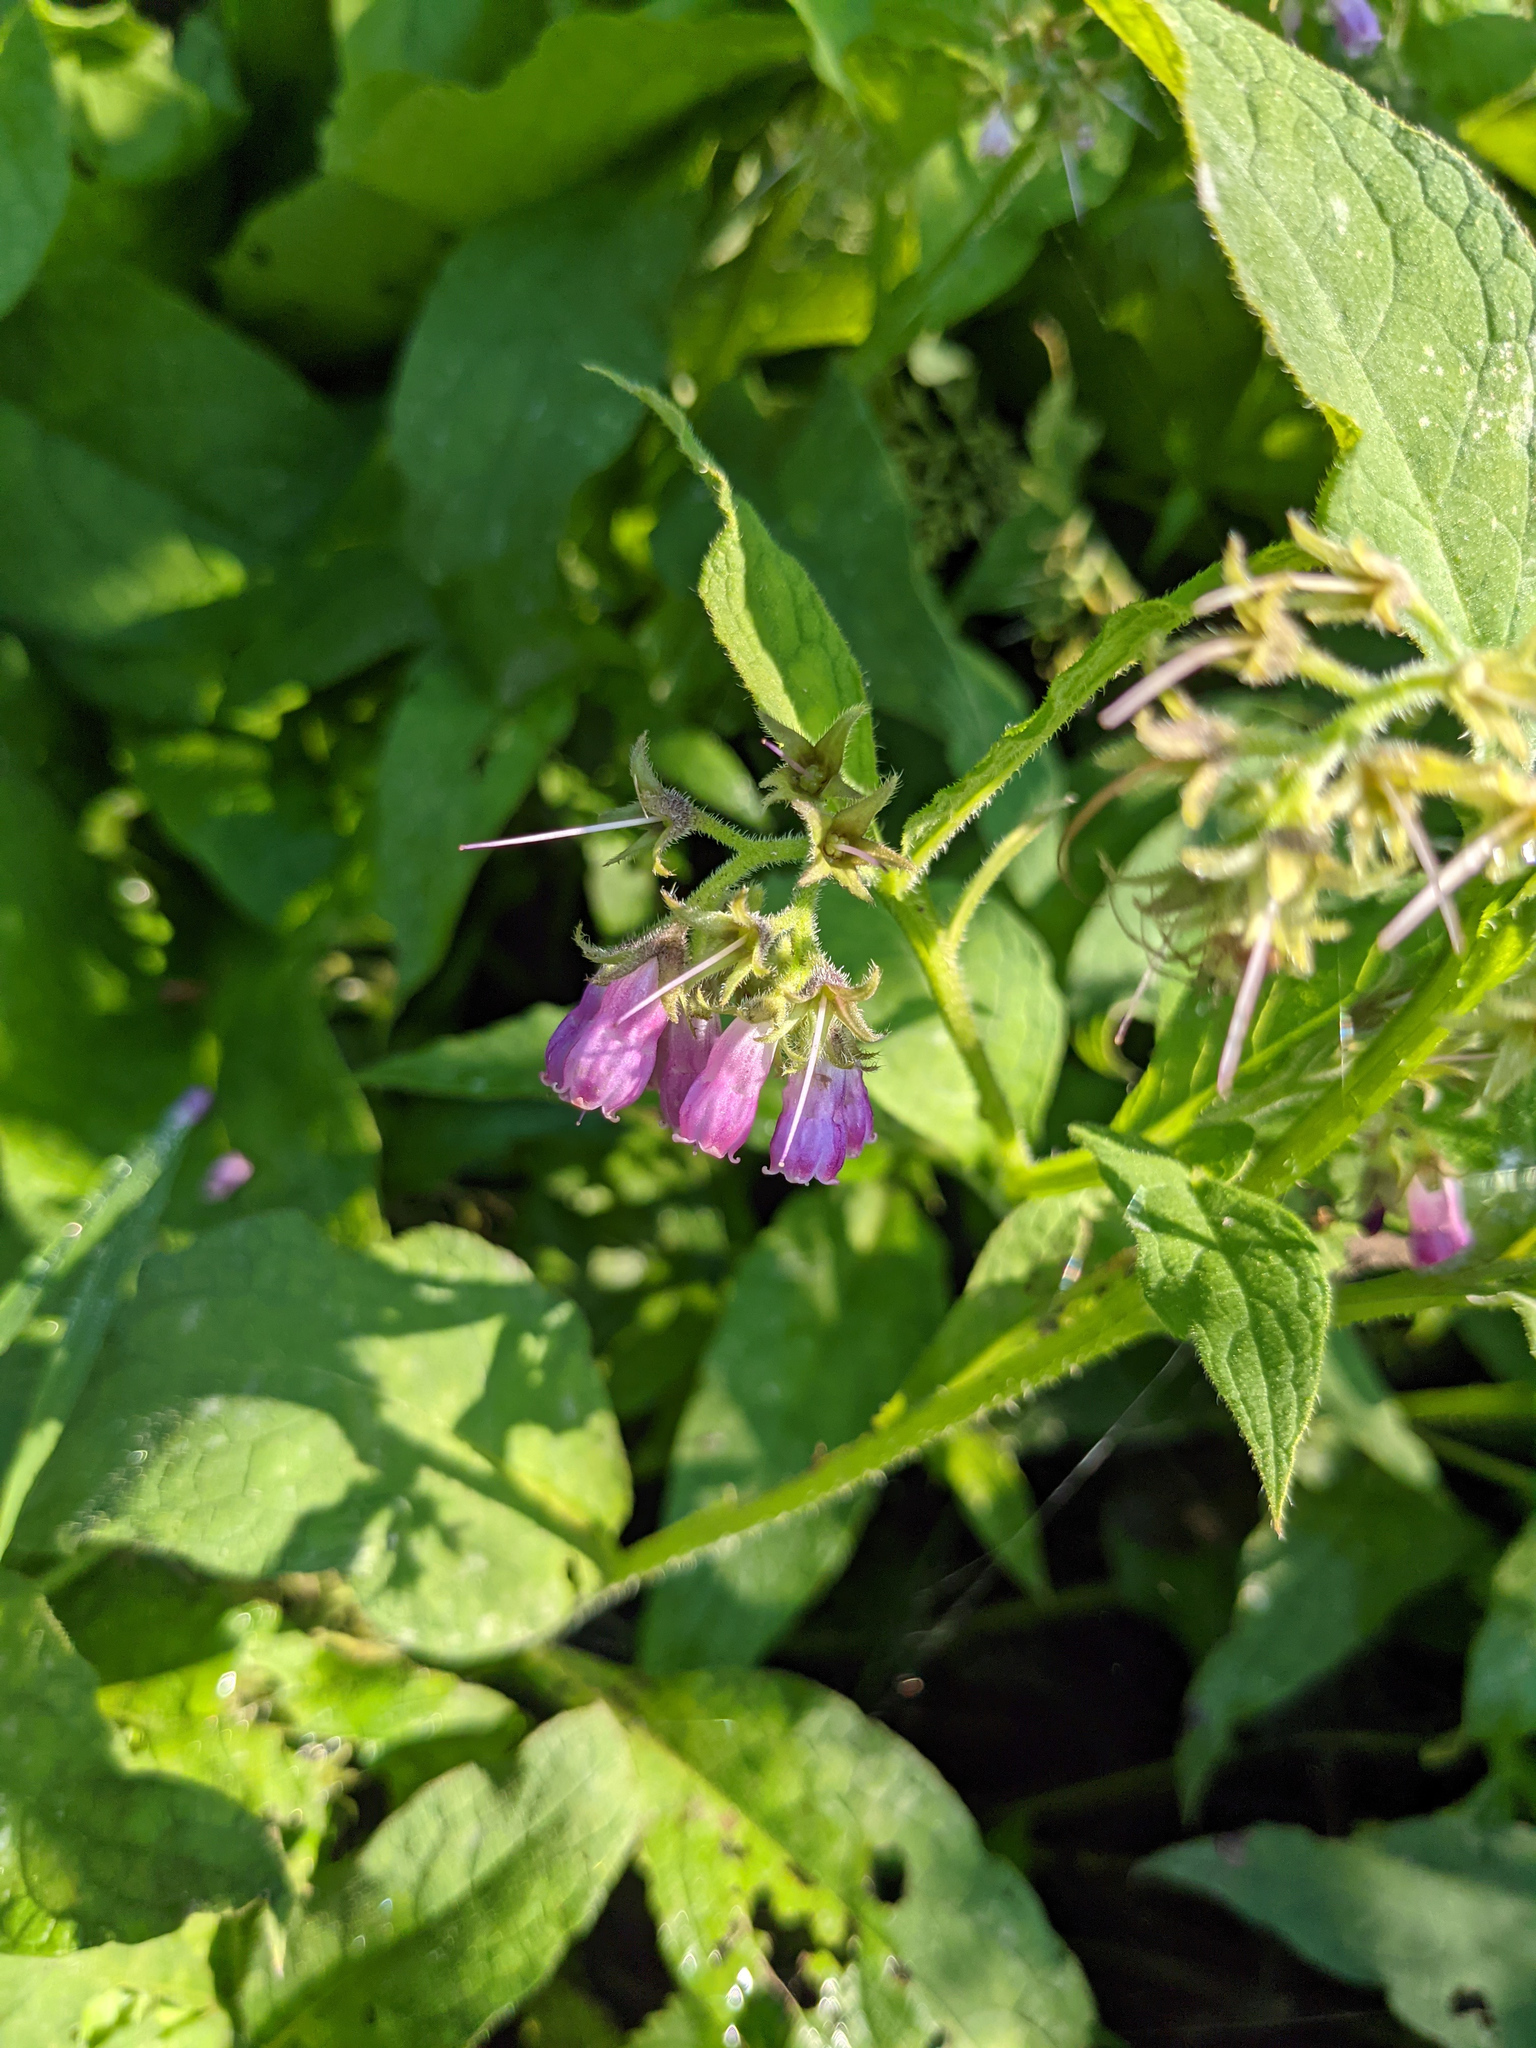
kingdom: Plantae
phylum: Tracheophyta
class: Magnoliopsida
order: Boraginales
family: Boraginaceae
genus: Symphytum
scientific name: Symphytum officinale
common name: Common comfrey
